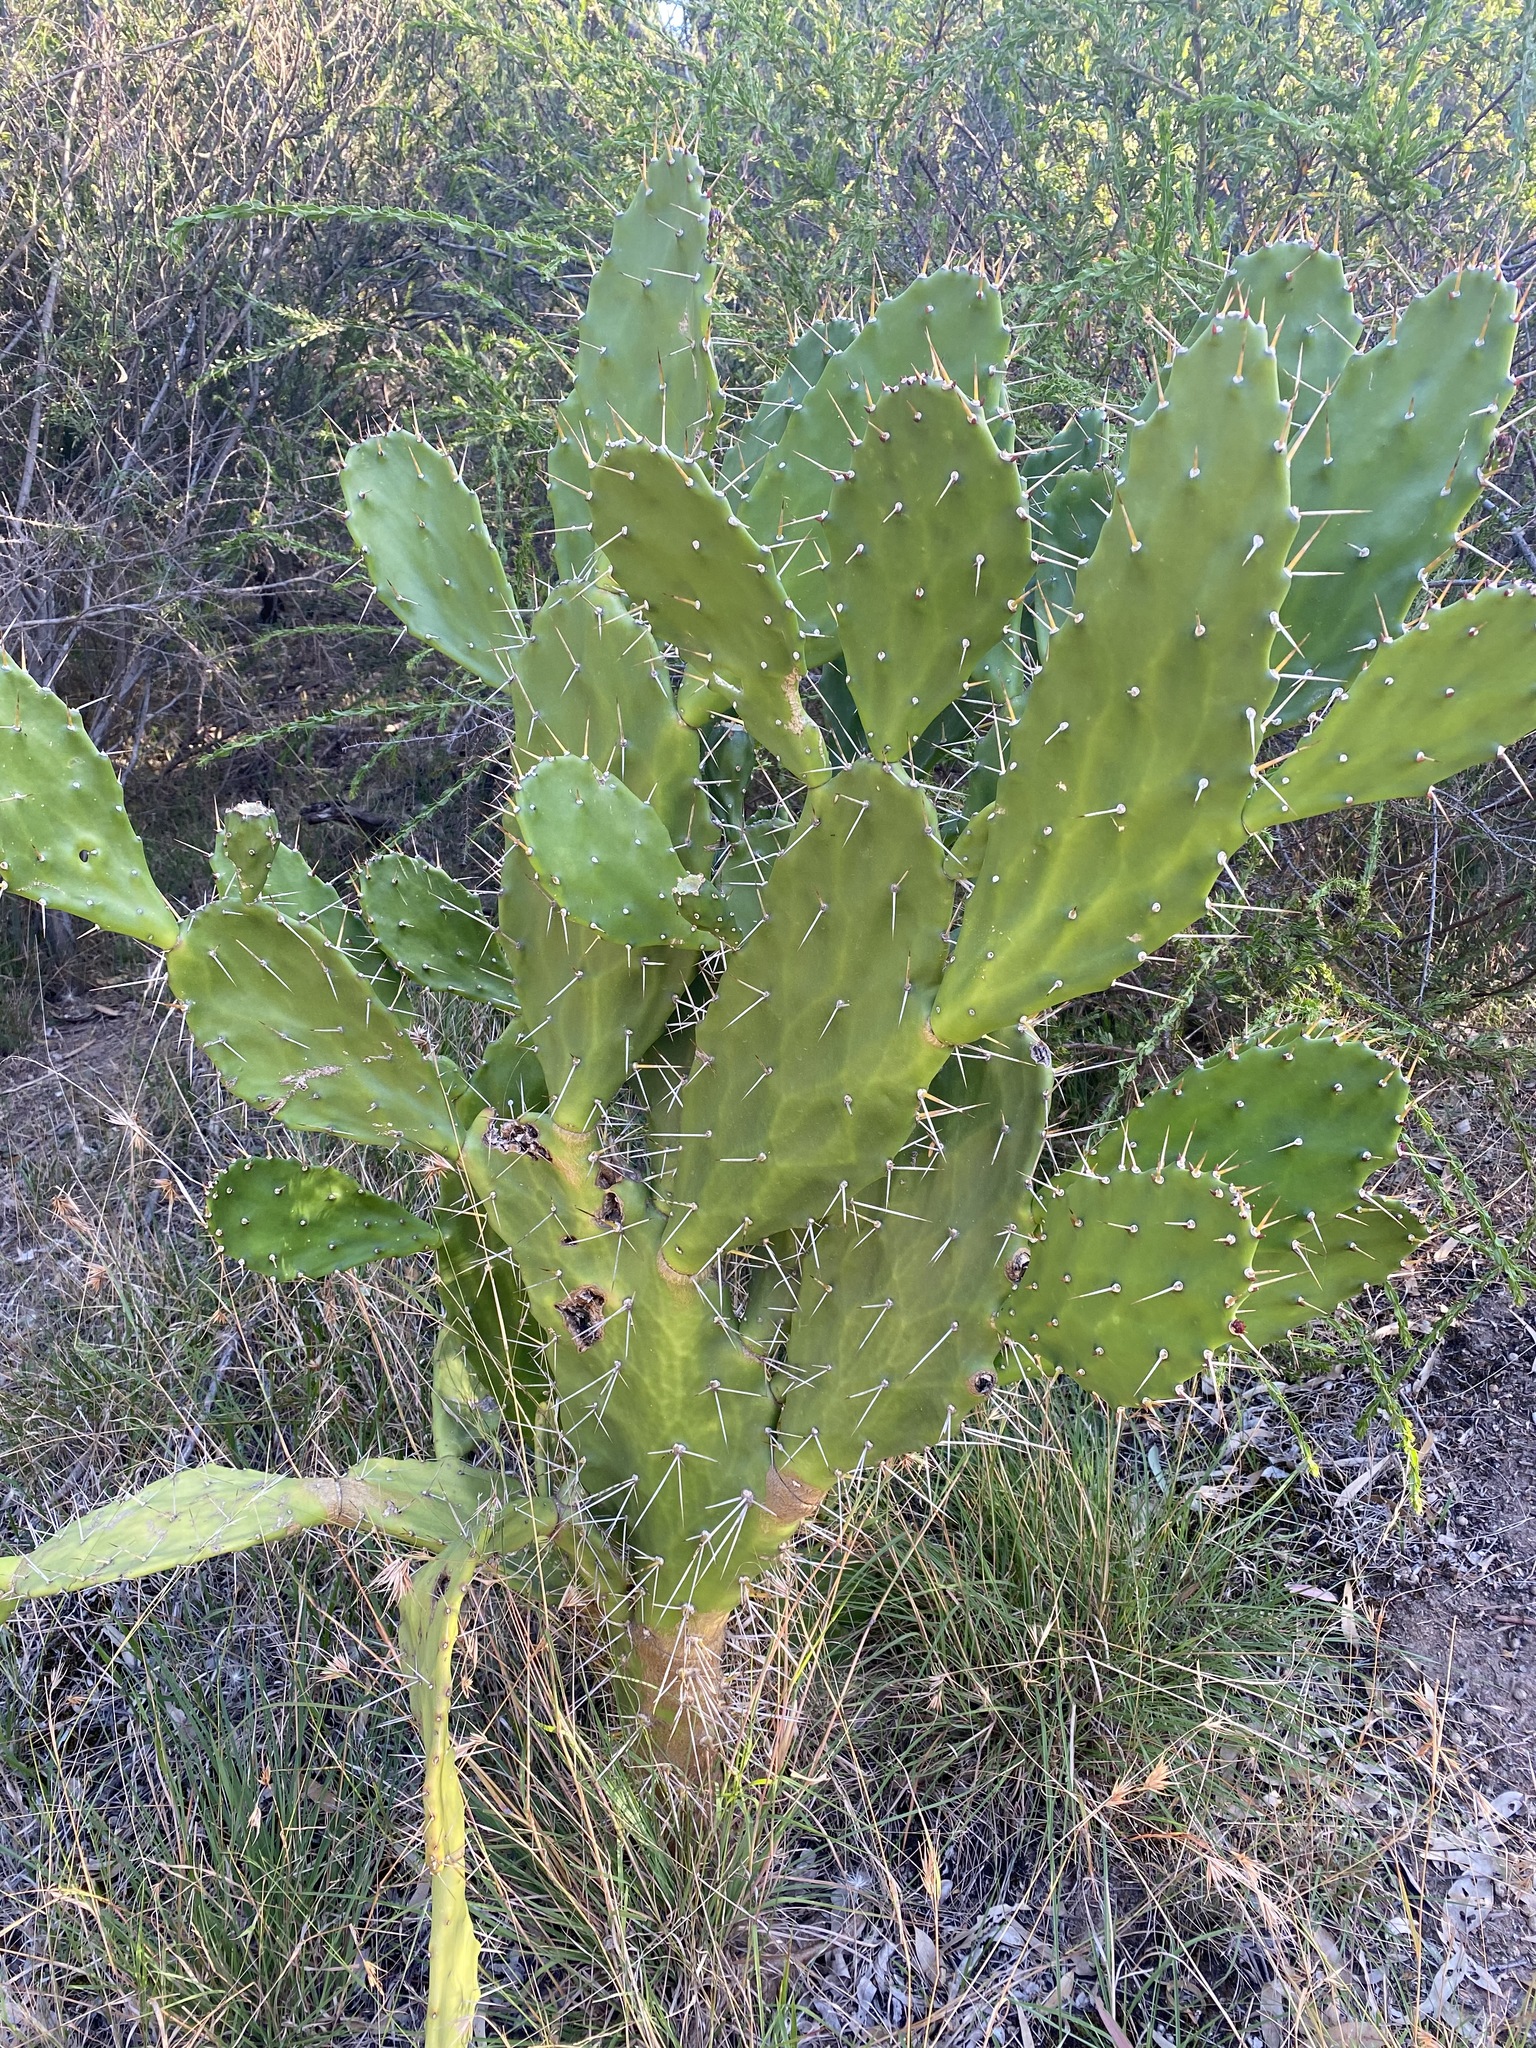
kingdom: Plantae
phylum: Tracheophyta
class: Magnoliopsida
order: Caryophyllales
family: Cactaceae
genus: Opuntia
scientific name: Opuntia monacantha
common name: Common pricklypear
